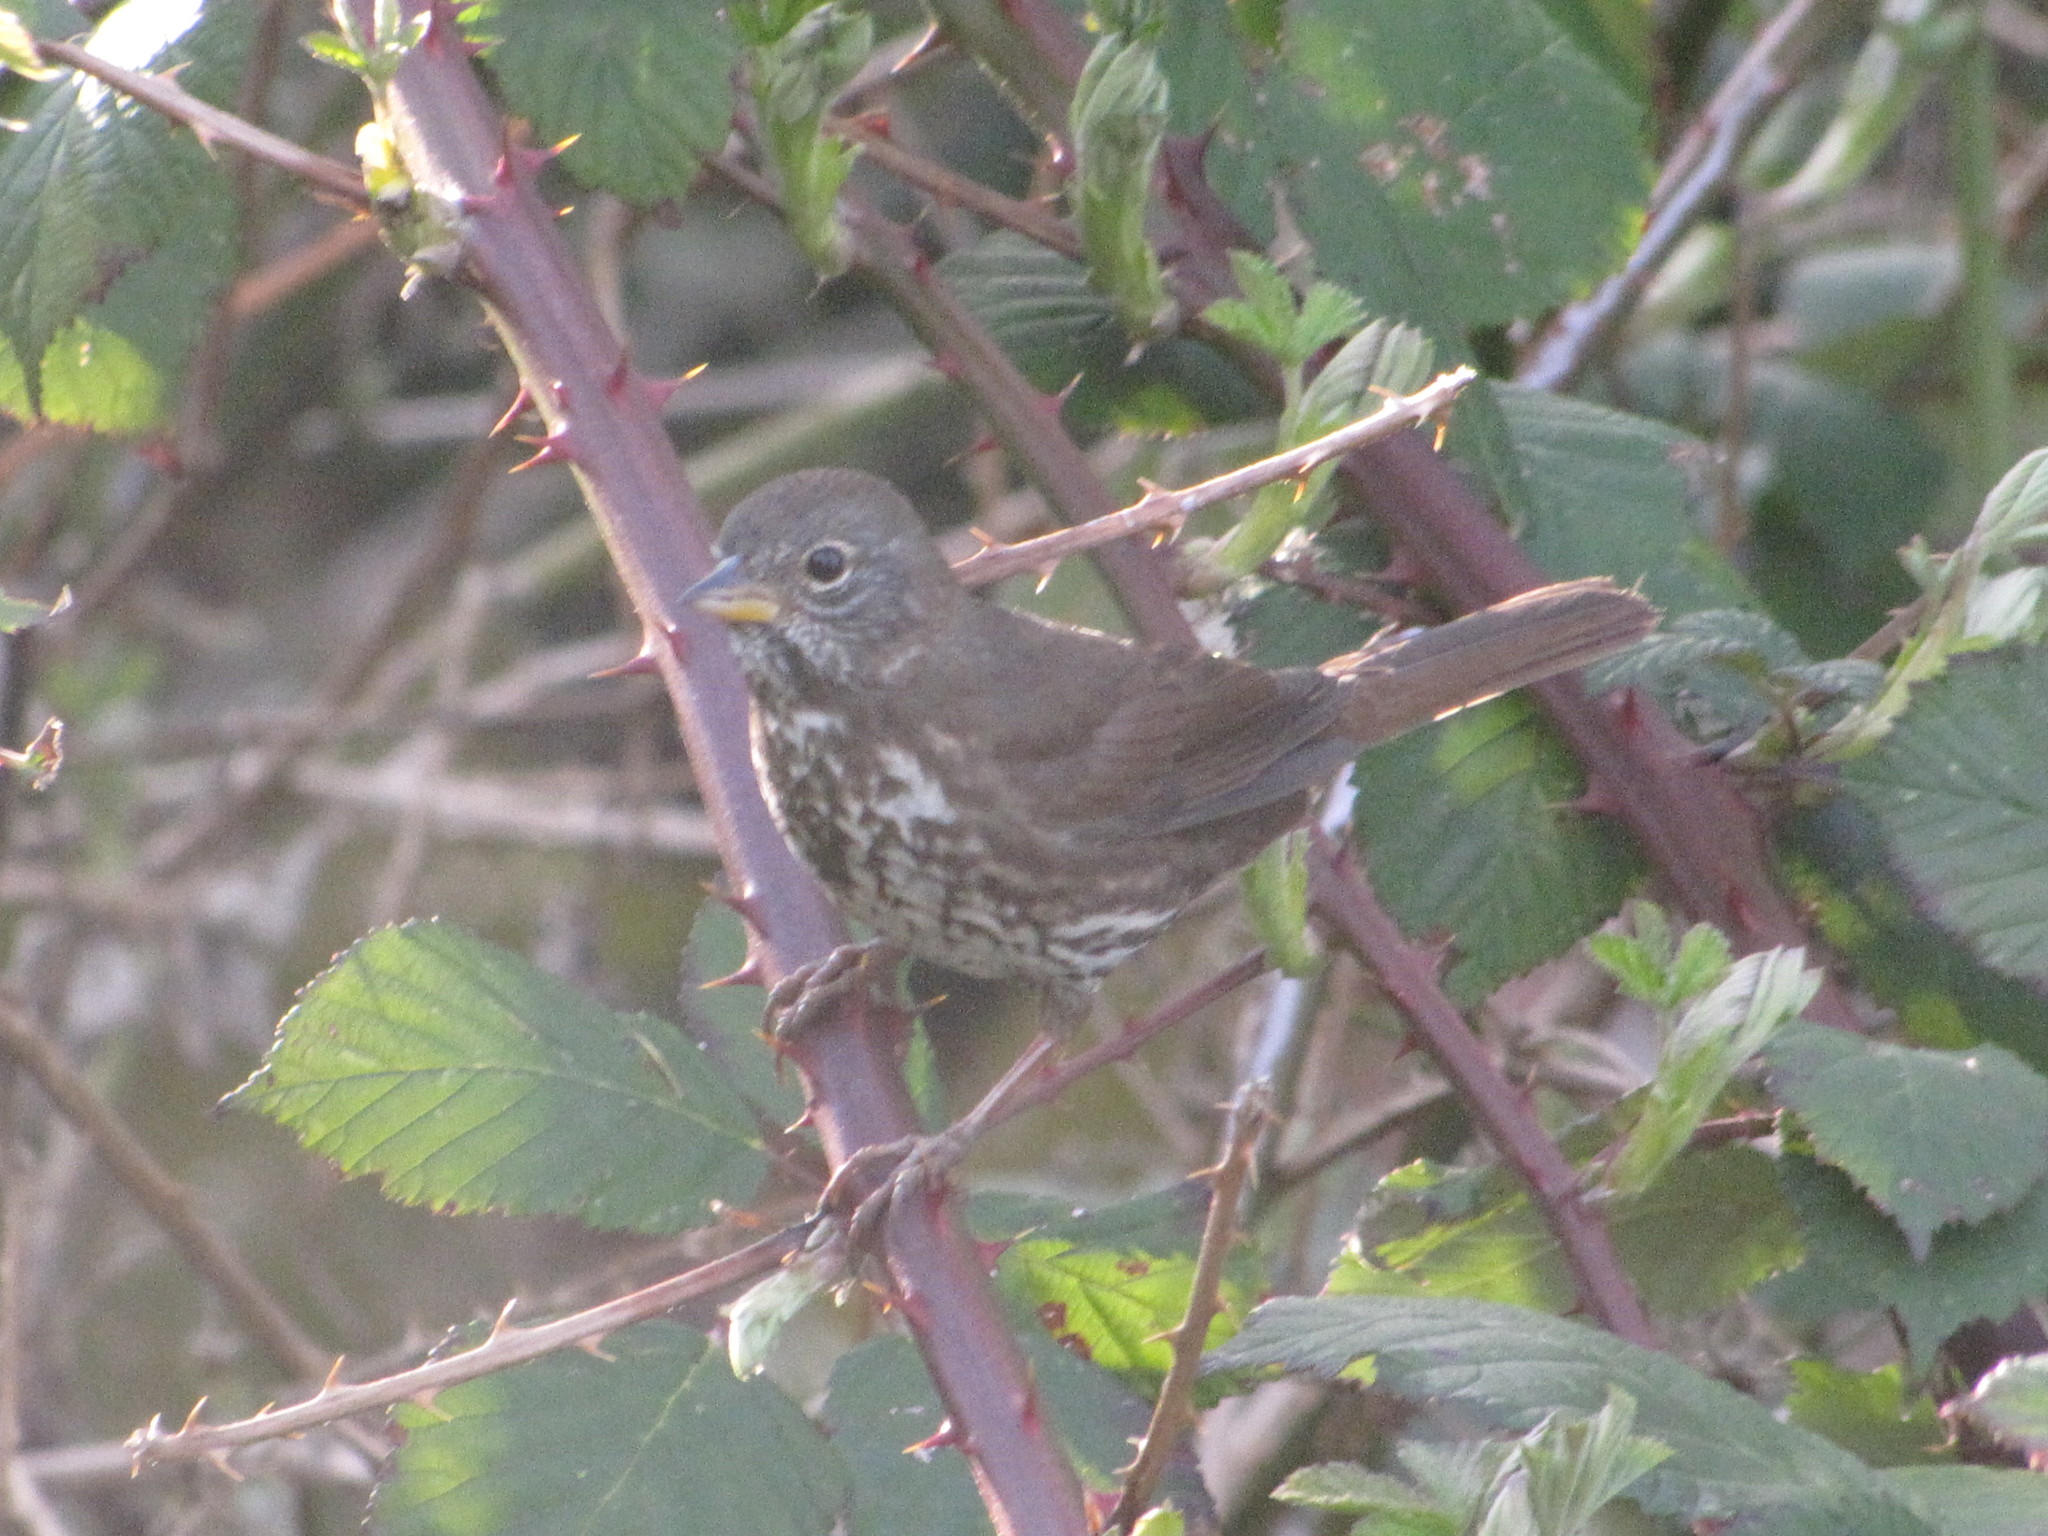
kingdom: Animalia
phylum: Chordata
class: Aves
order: Passeriformes
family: Passerellidae
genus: Passerella
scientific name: Passerella iliaca
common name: Fox sparrow
